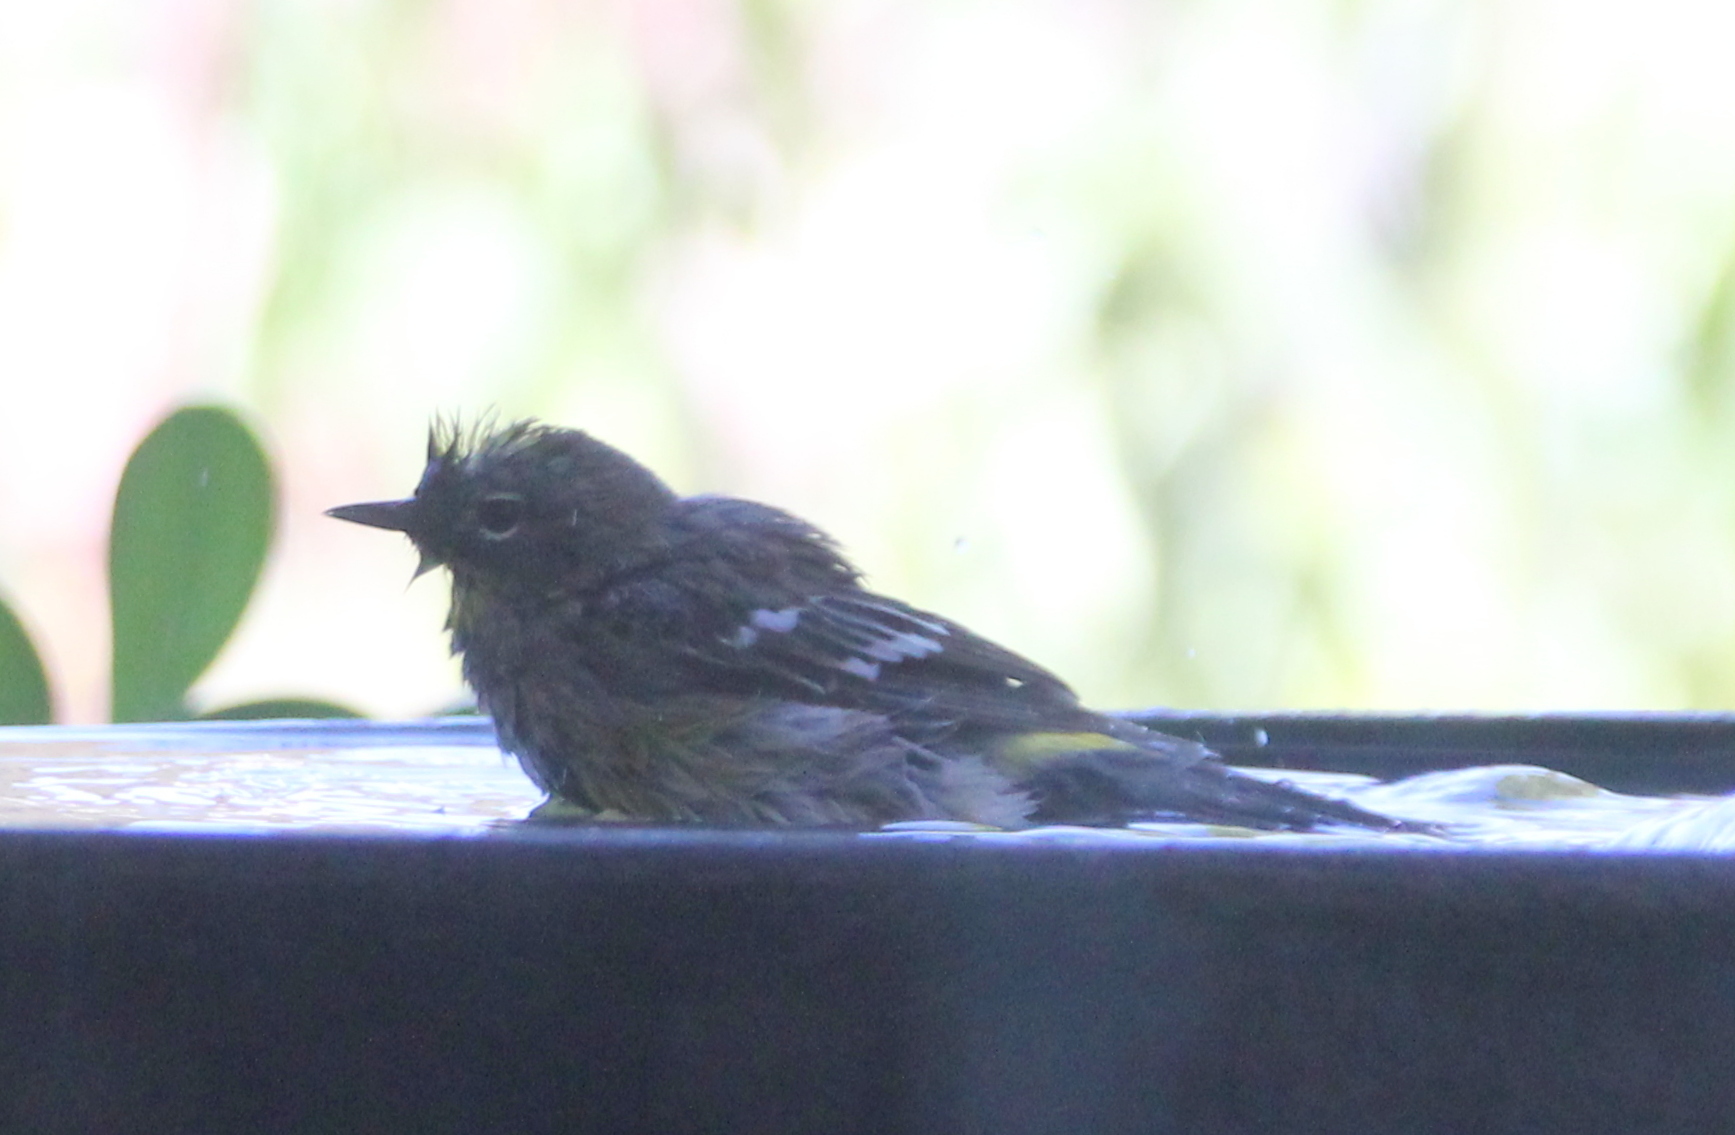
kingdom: Animalia
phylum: Chordata
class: Aves
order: Passeriformes
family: Parulidae
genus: Setophaga
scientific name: Setophaga auduboni
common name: Audubon's warbler
